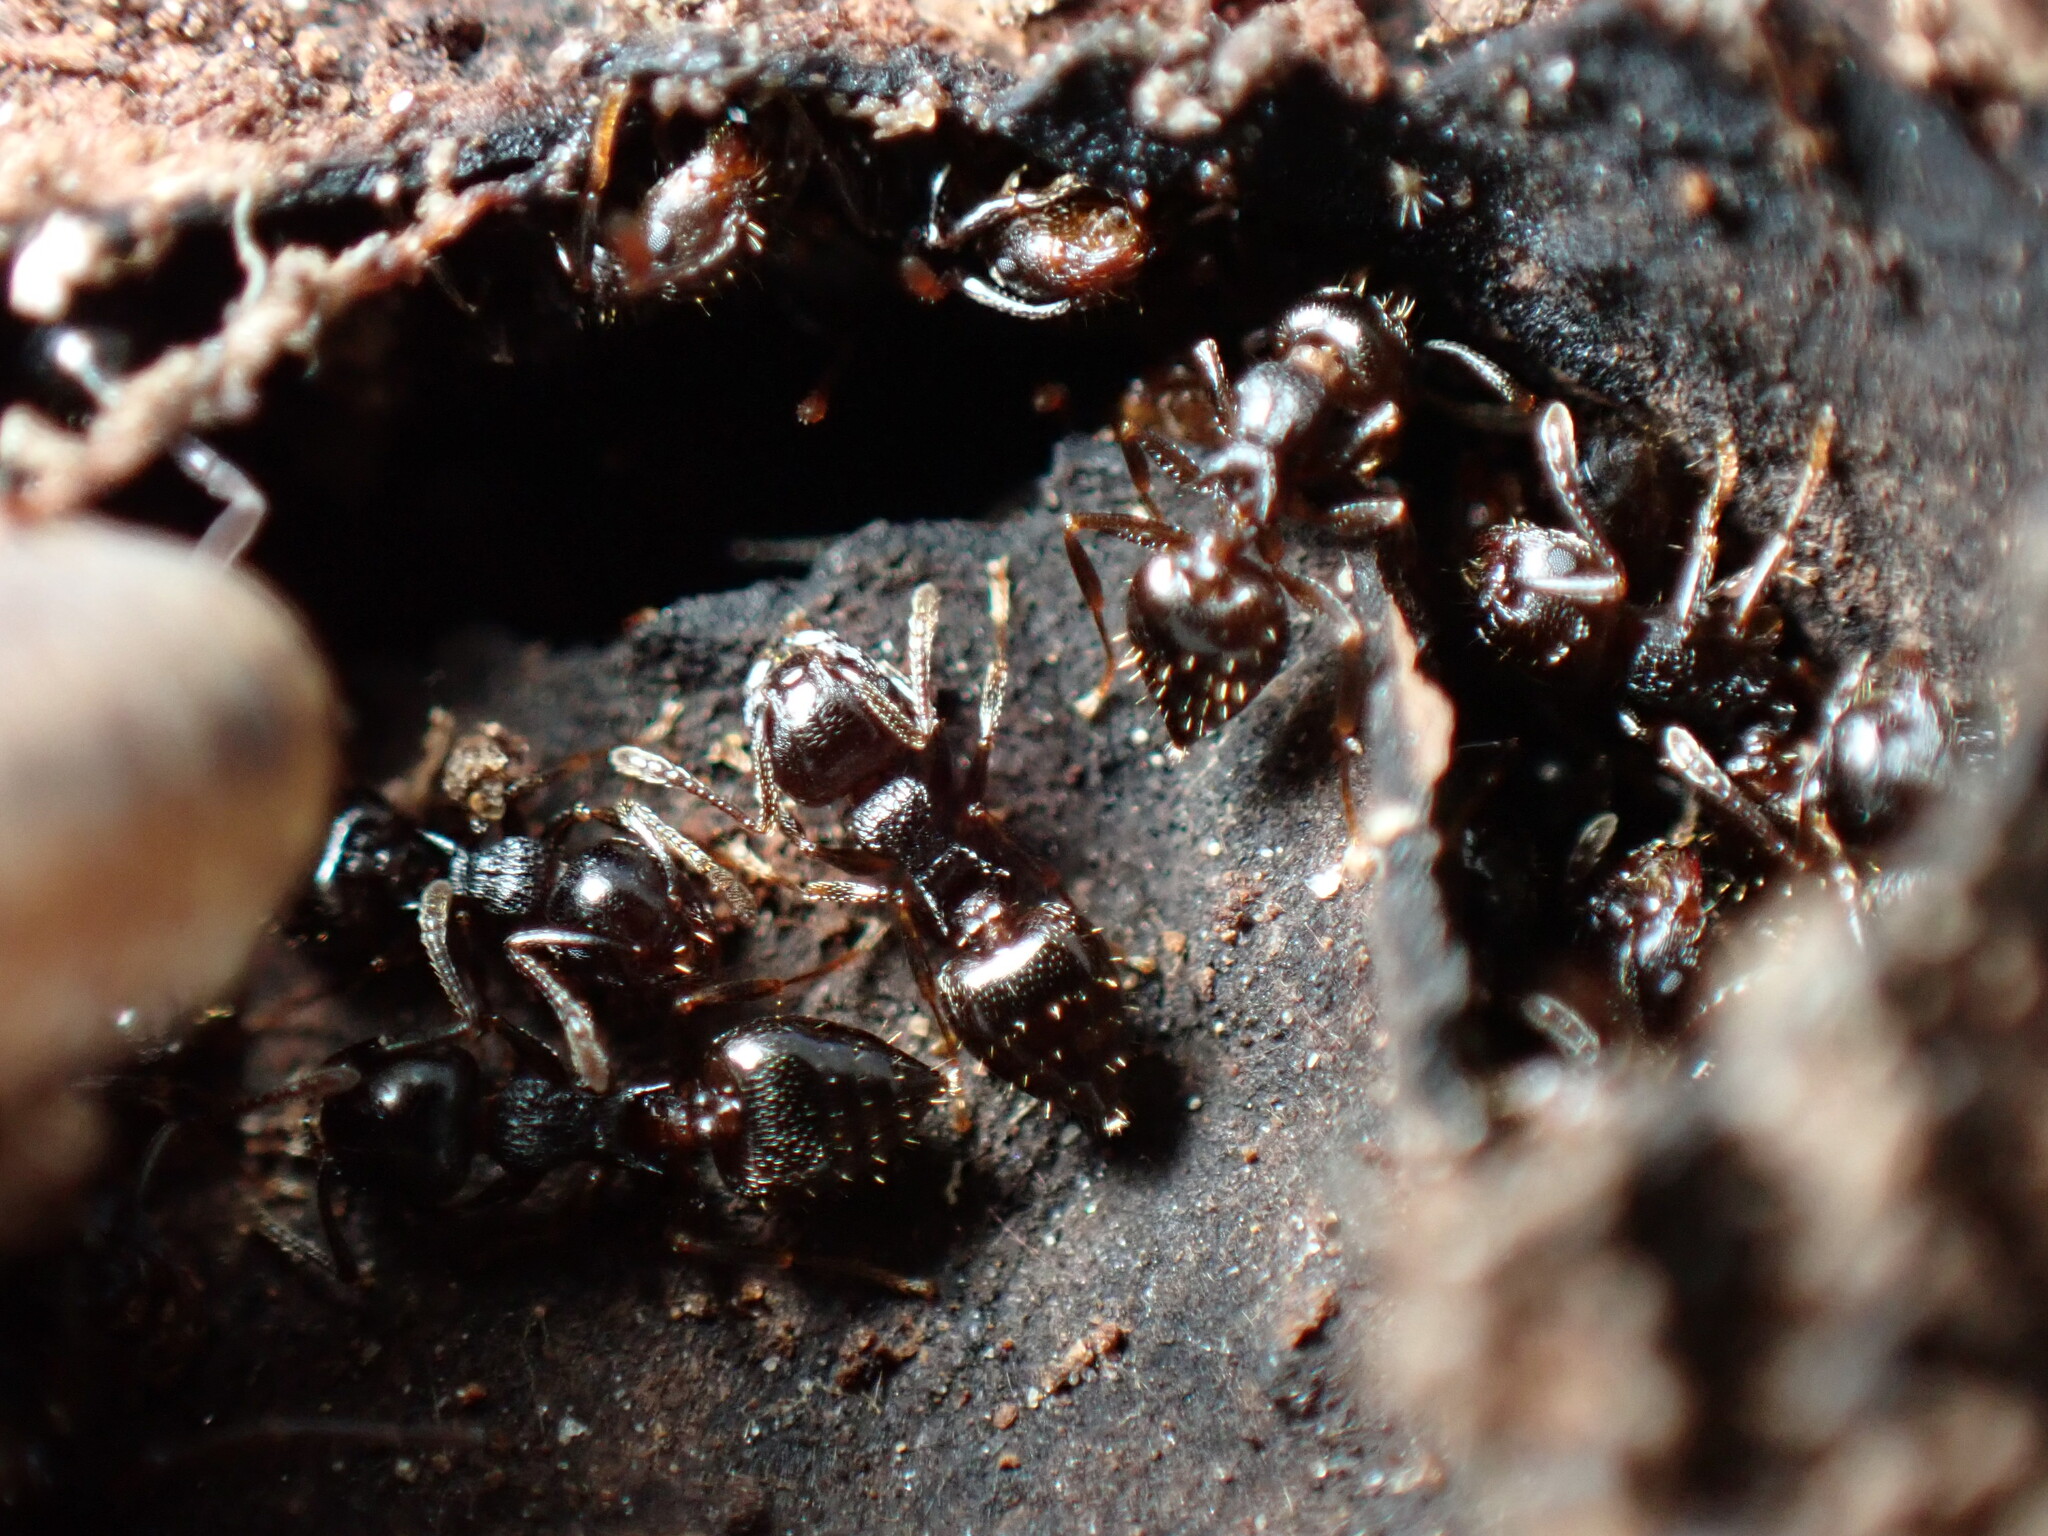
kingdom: Animalia
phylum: Arthropoda
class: Insecta
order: Hymenoptera
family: Formicidae
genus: Crematogaster
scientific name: Crematogaster lineolata
